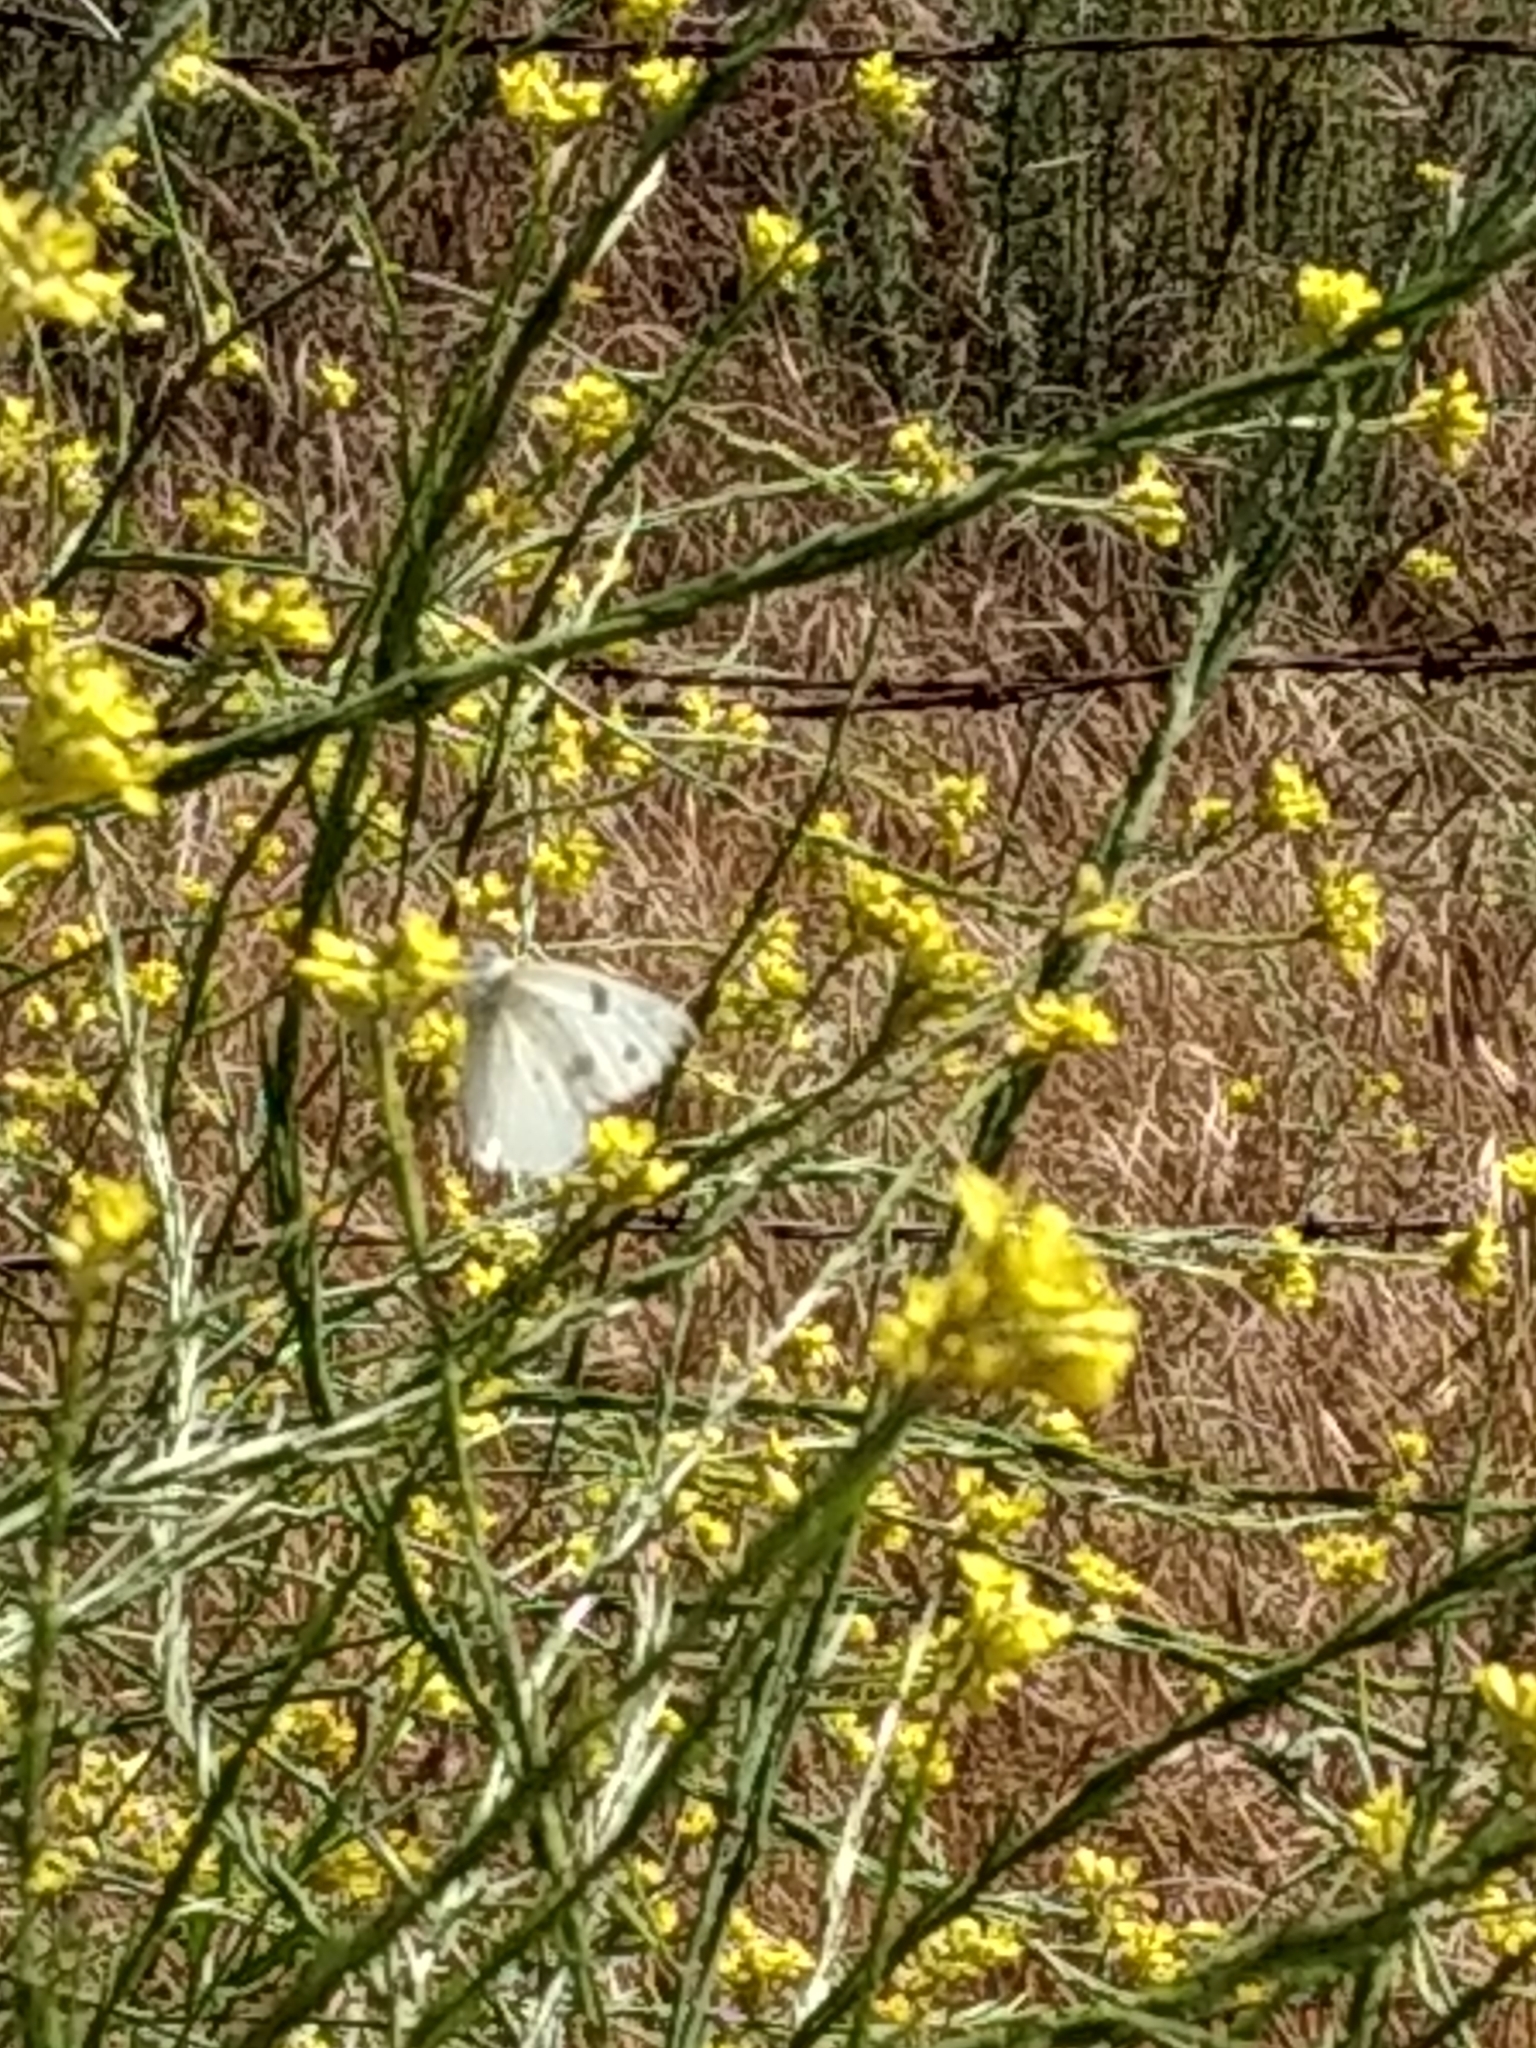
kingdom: Animalia
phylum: Arthropoda
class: Insecta
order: Lepidoptera
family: Pieridae
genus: Pontia
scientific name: Pontia protodice
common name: Checkered white
